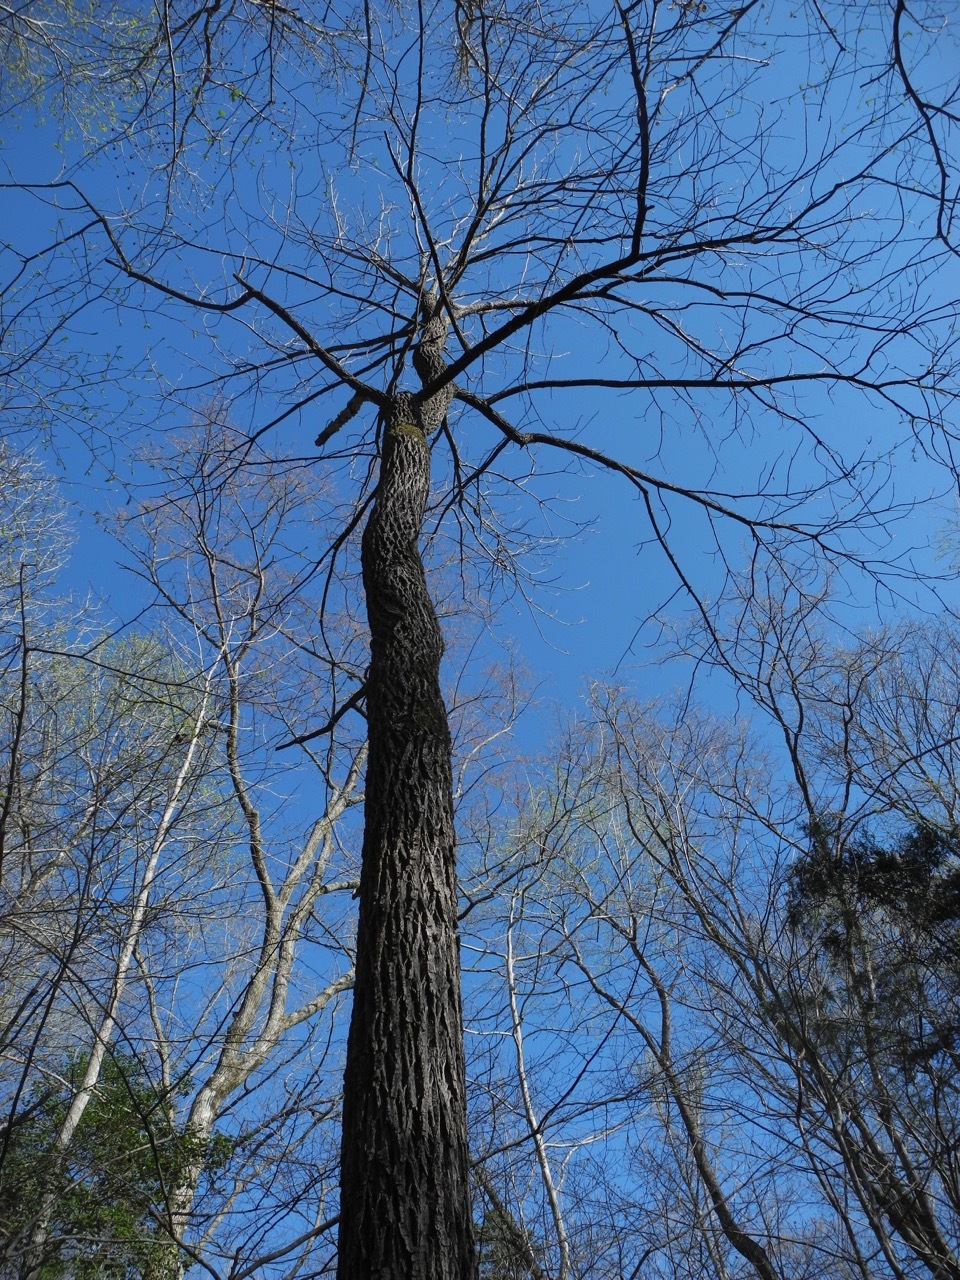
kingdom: Plantae
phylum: Tracheophyta
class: Magnoliopsida
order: Fagales
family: Juglandaceae
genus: Juglans
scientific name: Juglans nigra
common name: Black walnut
